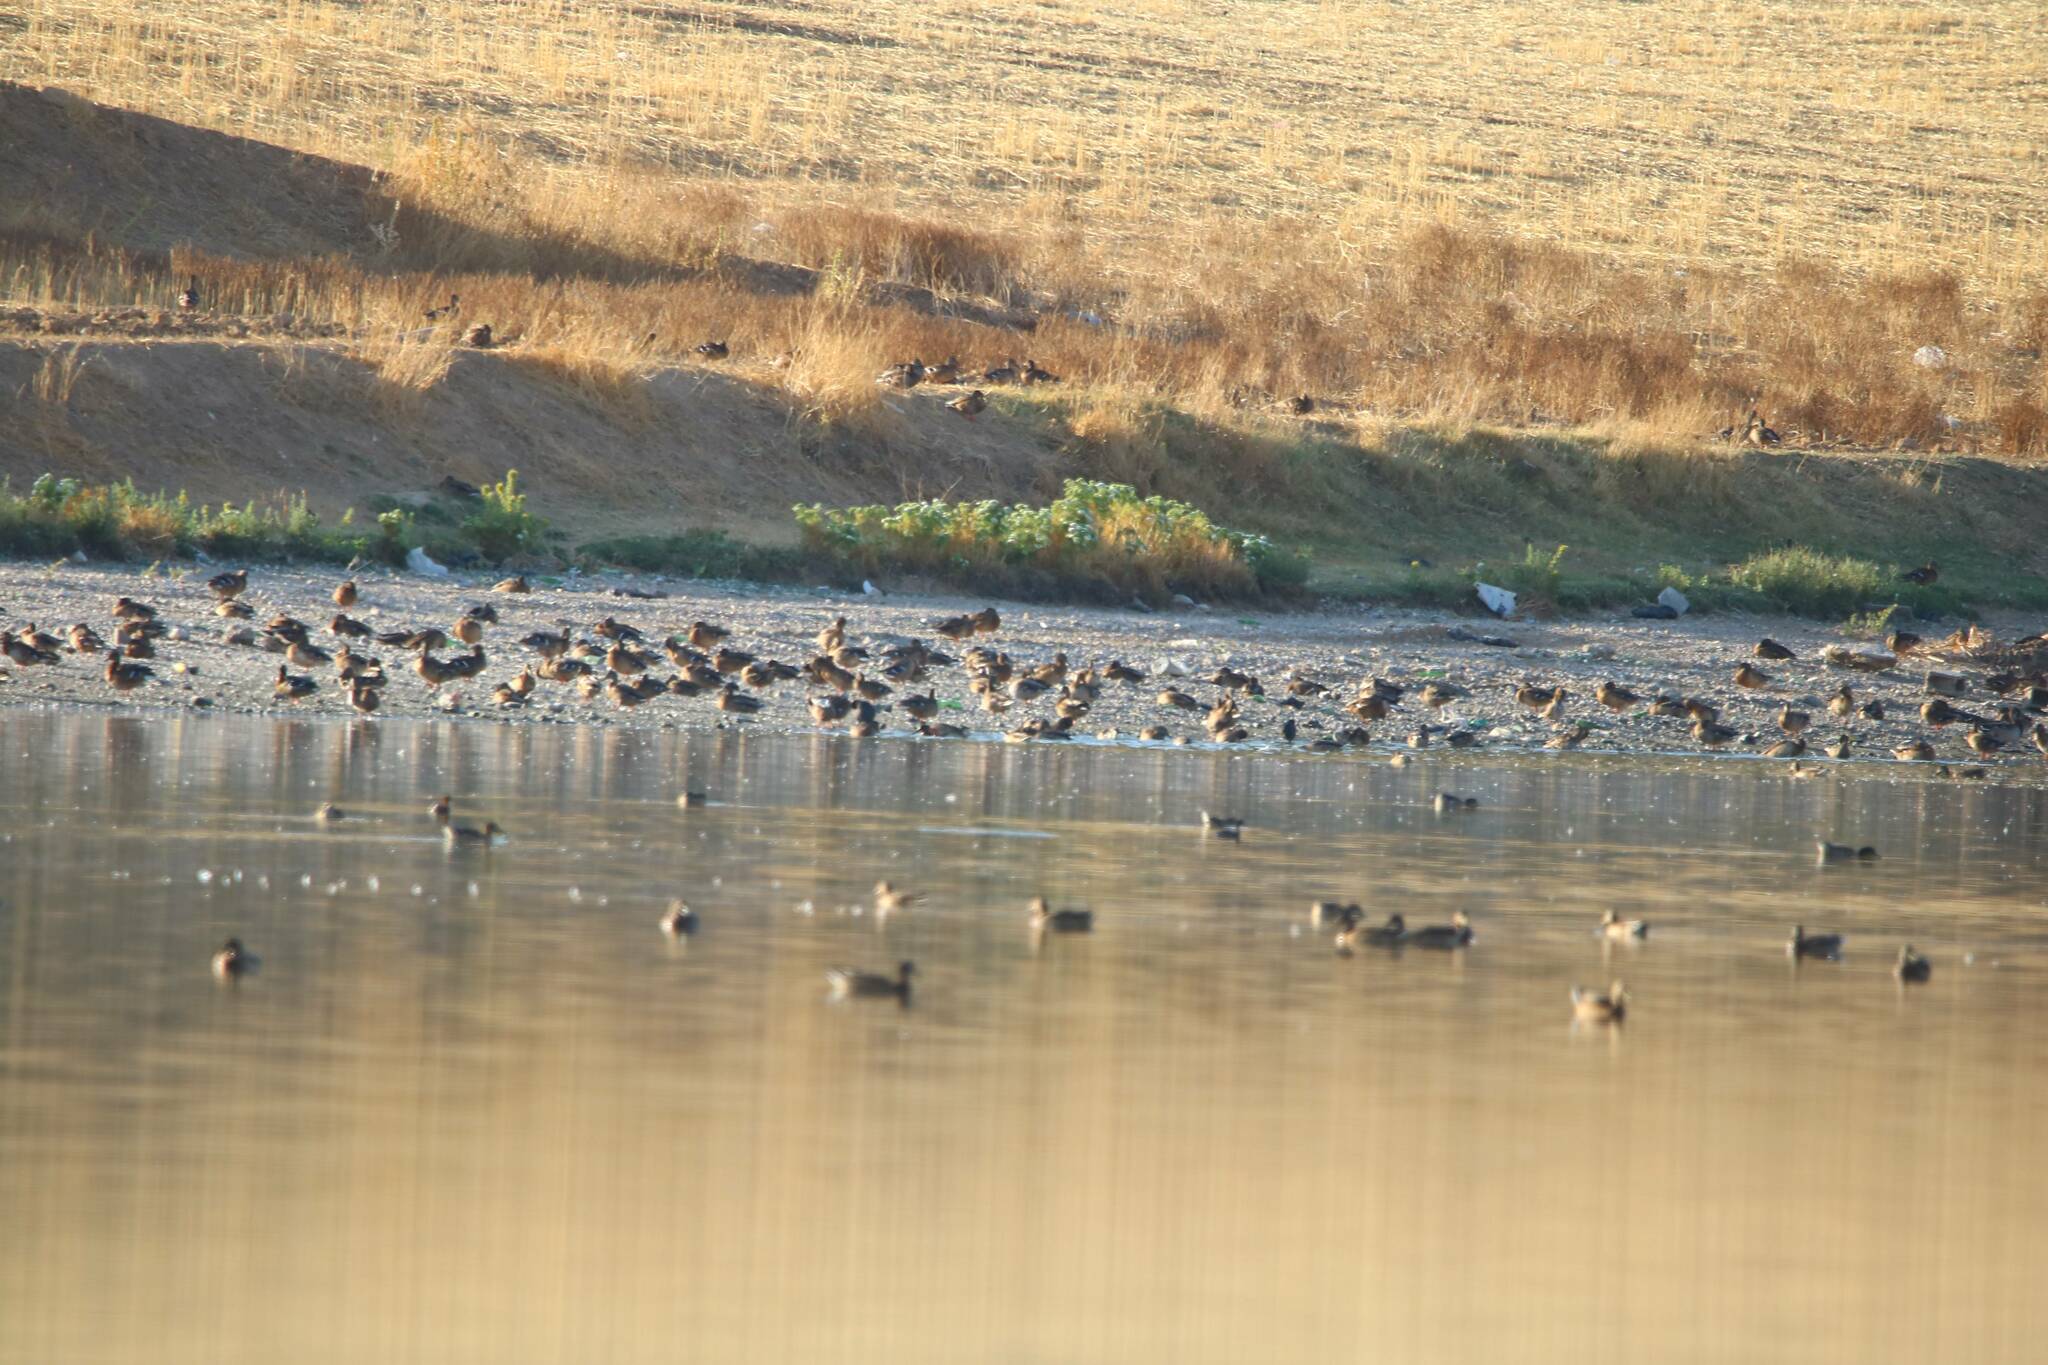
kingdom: Animalia
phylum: Chordata
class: Aves
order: Anseriformes
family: Anatidae
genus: Anas
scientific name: Anas platyrhynchos
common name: Mallard
